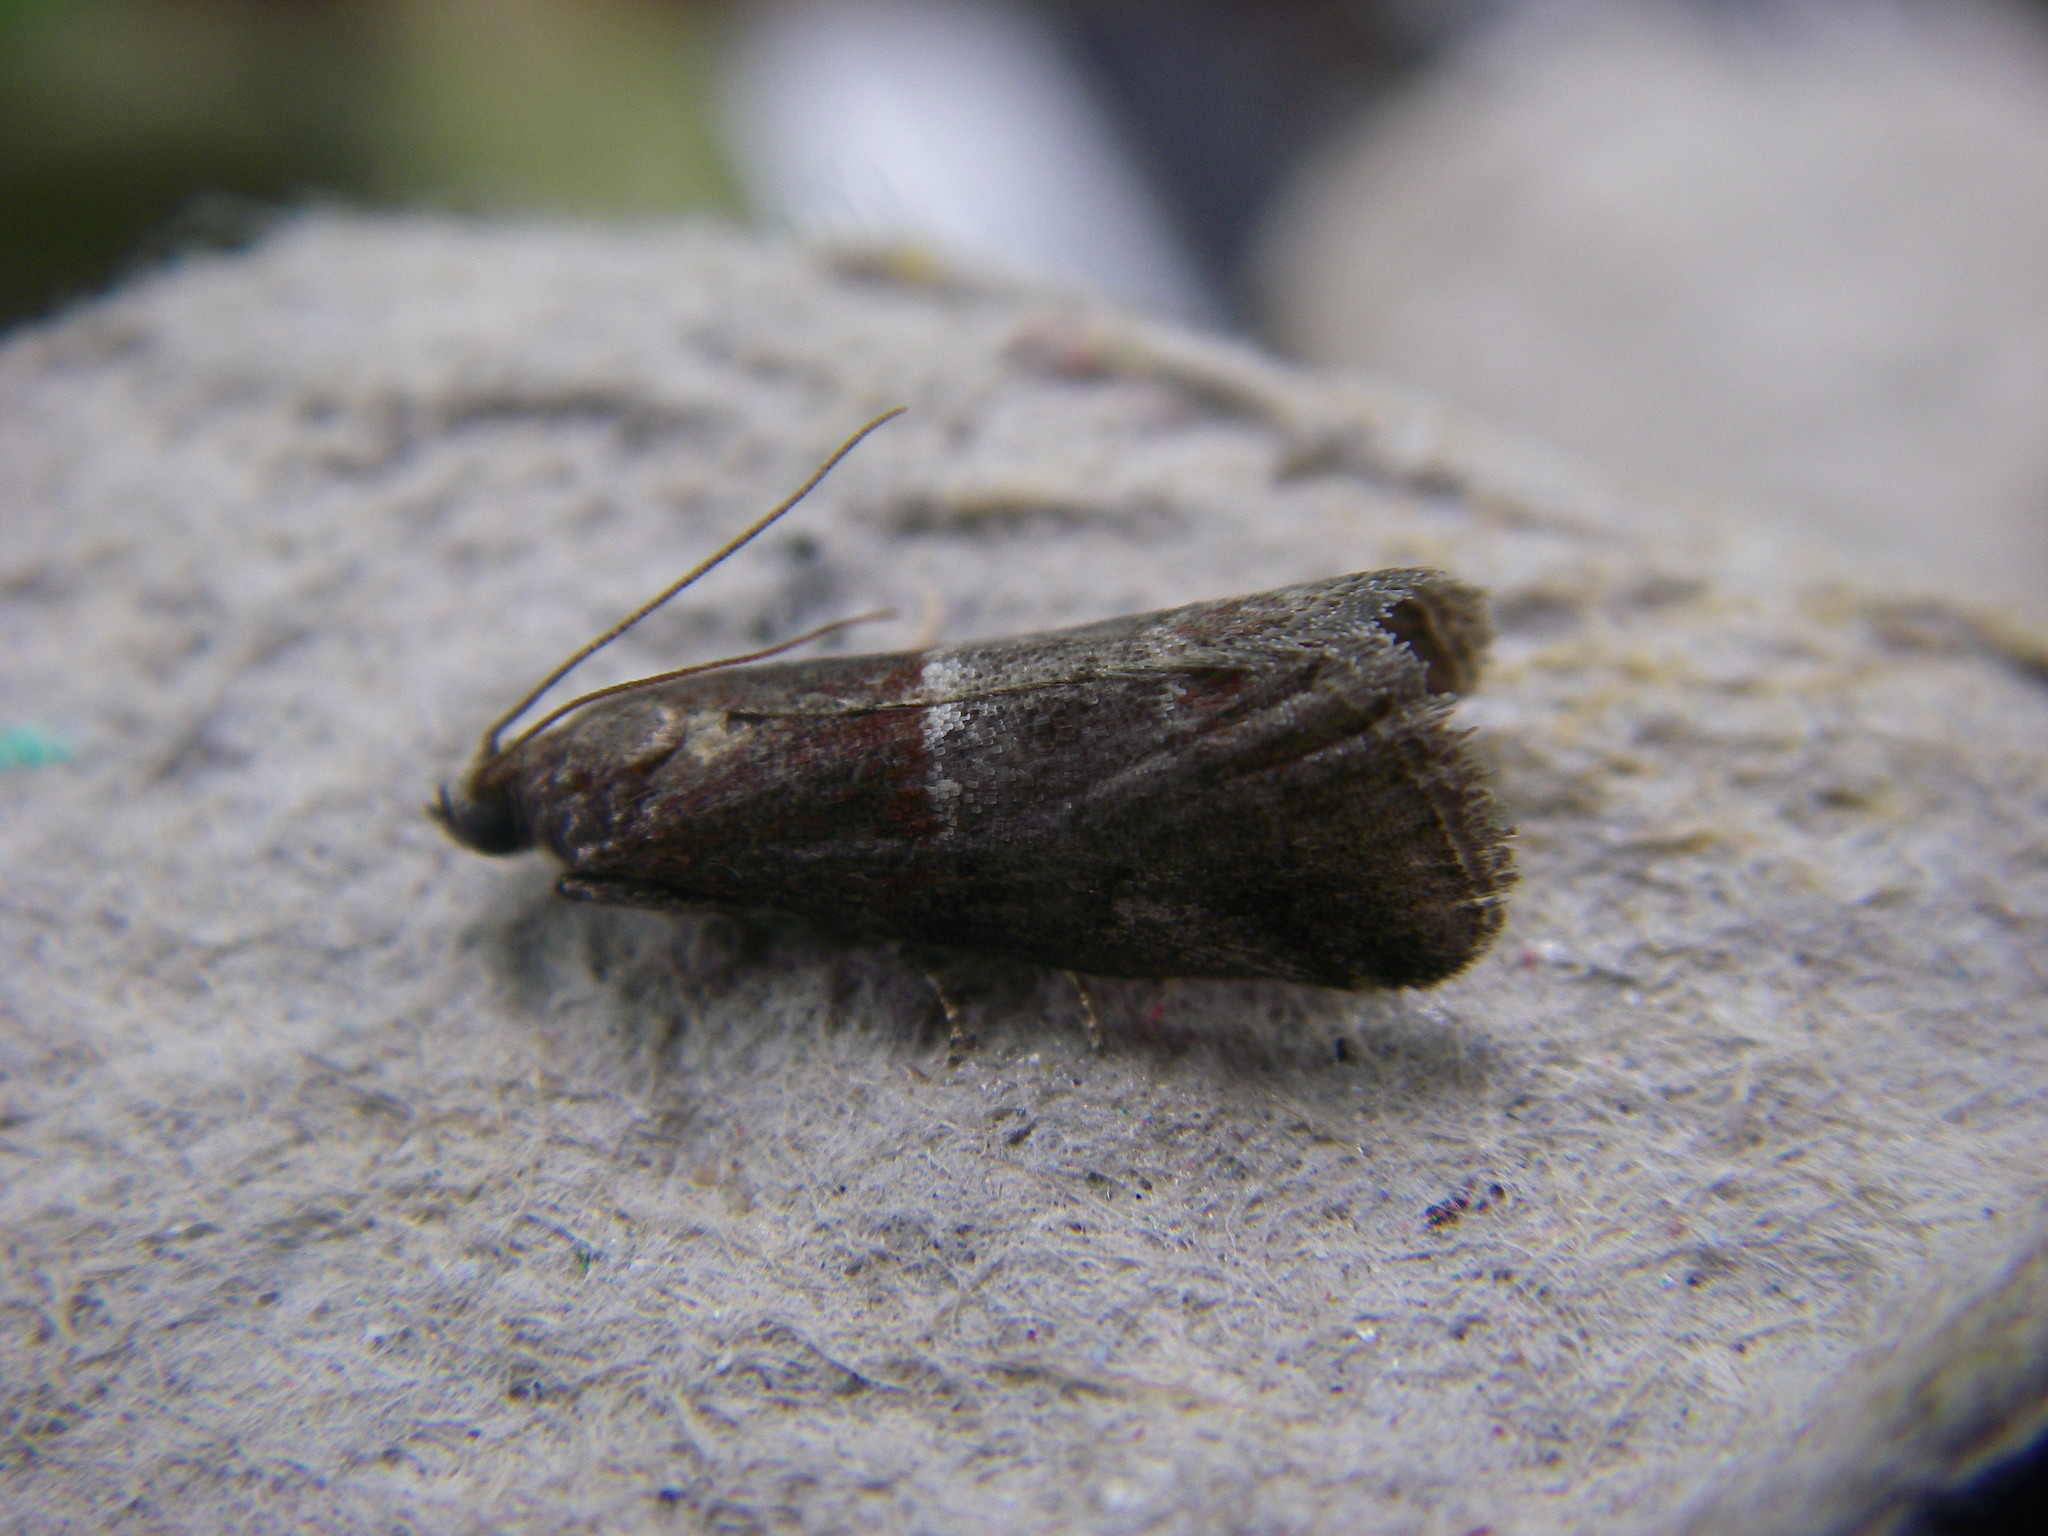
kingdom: Animalia
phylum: Arthropoda
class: Insecta
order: Lepidoptera
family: Pyralidae
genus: Acrobasis
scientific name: Acrobasis marmorea
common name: Marbled knot-horn
